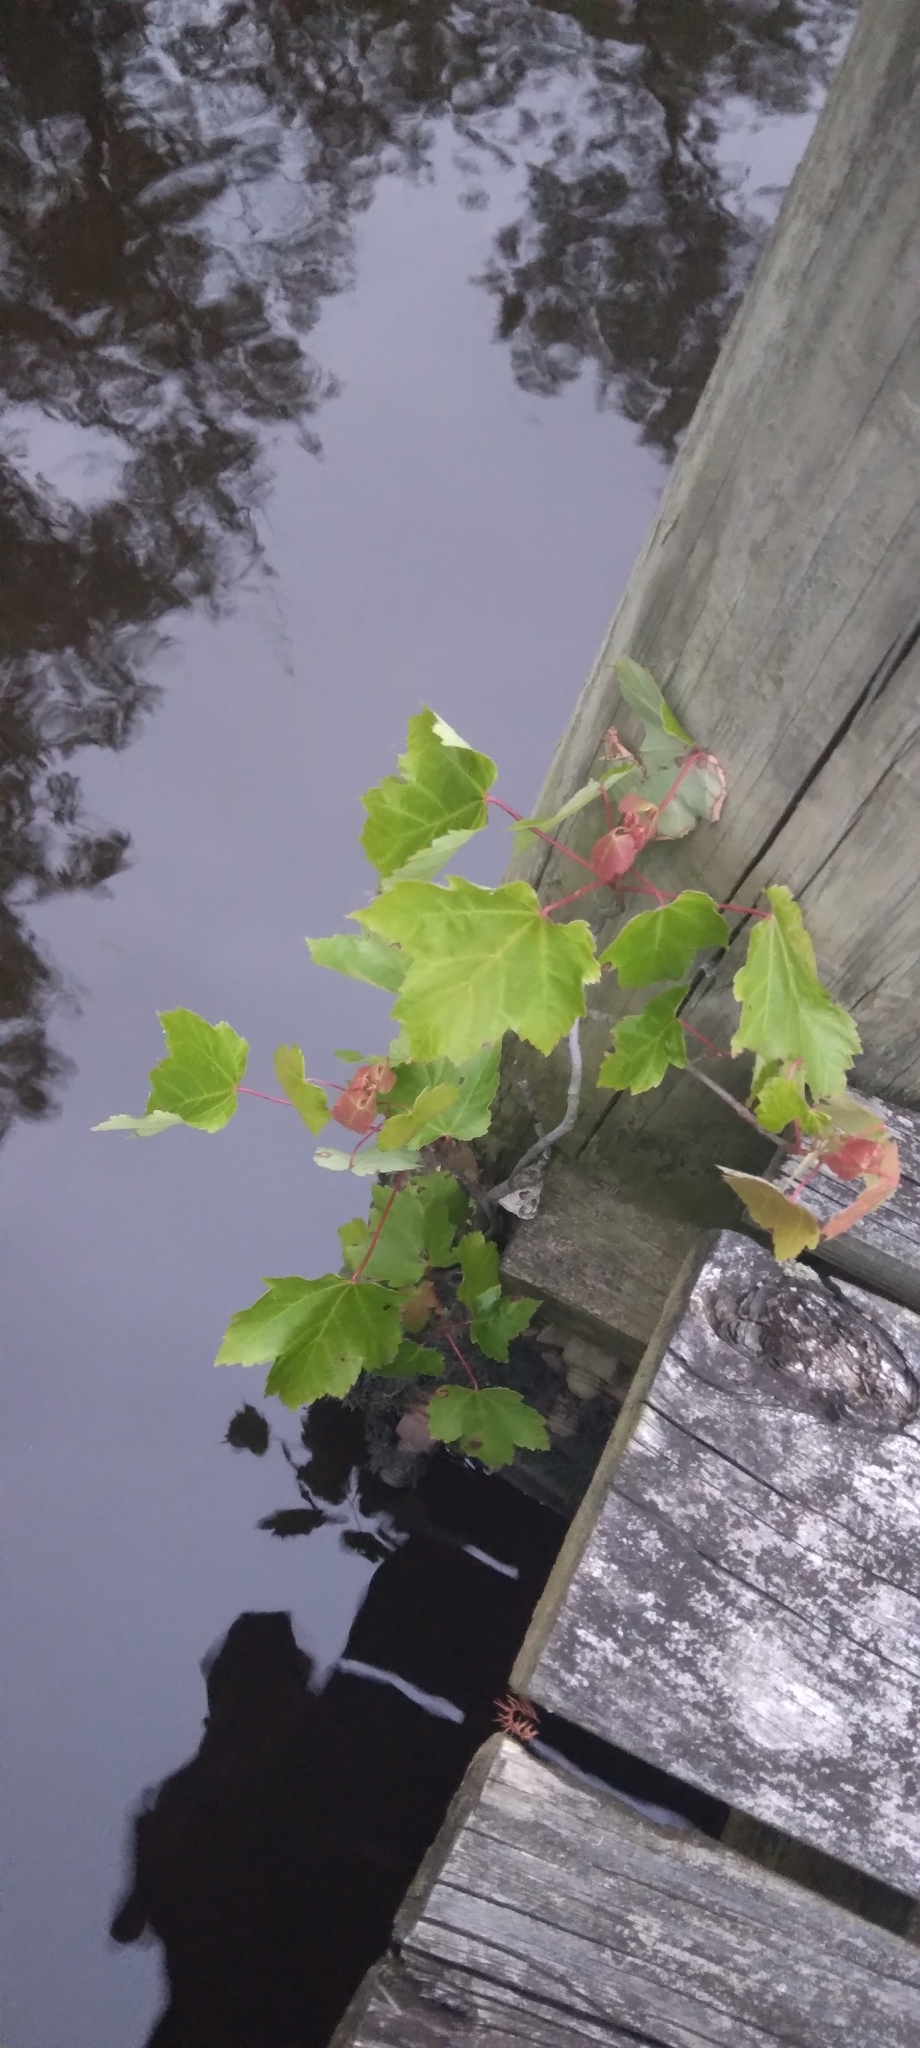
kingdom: Plantae
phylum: Tracheophyta
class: Magnoliopsida
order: Sapindales
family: Sapindaceae
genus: Acer
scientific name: Acer rubrum
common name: Red maple
